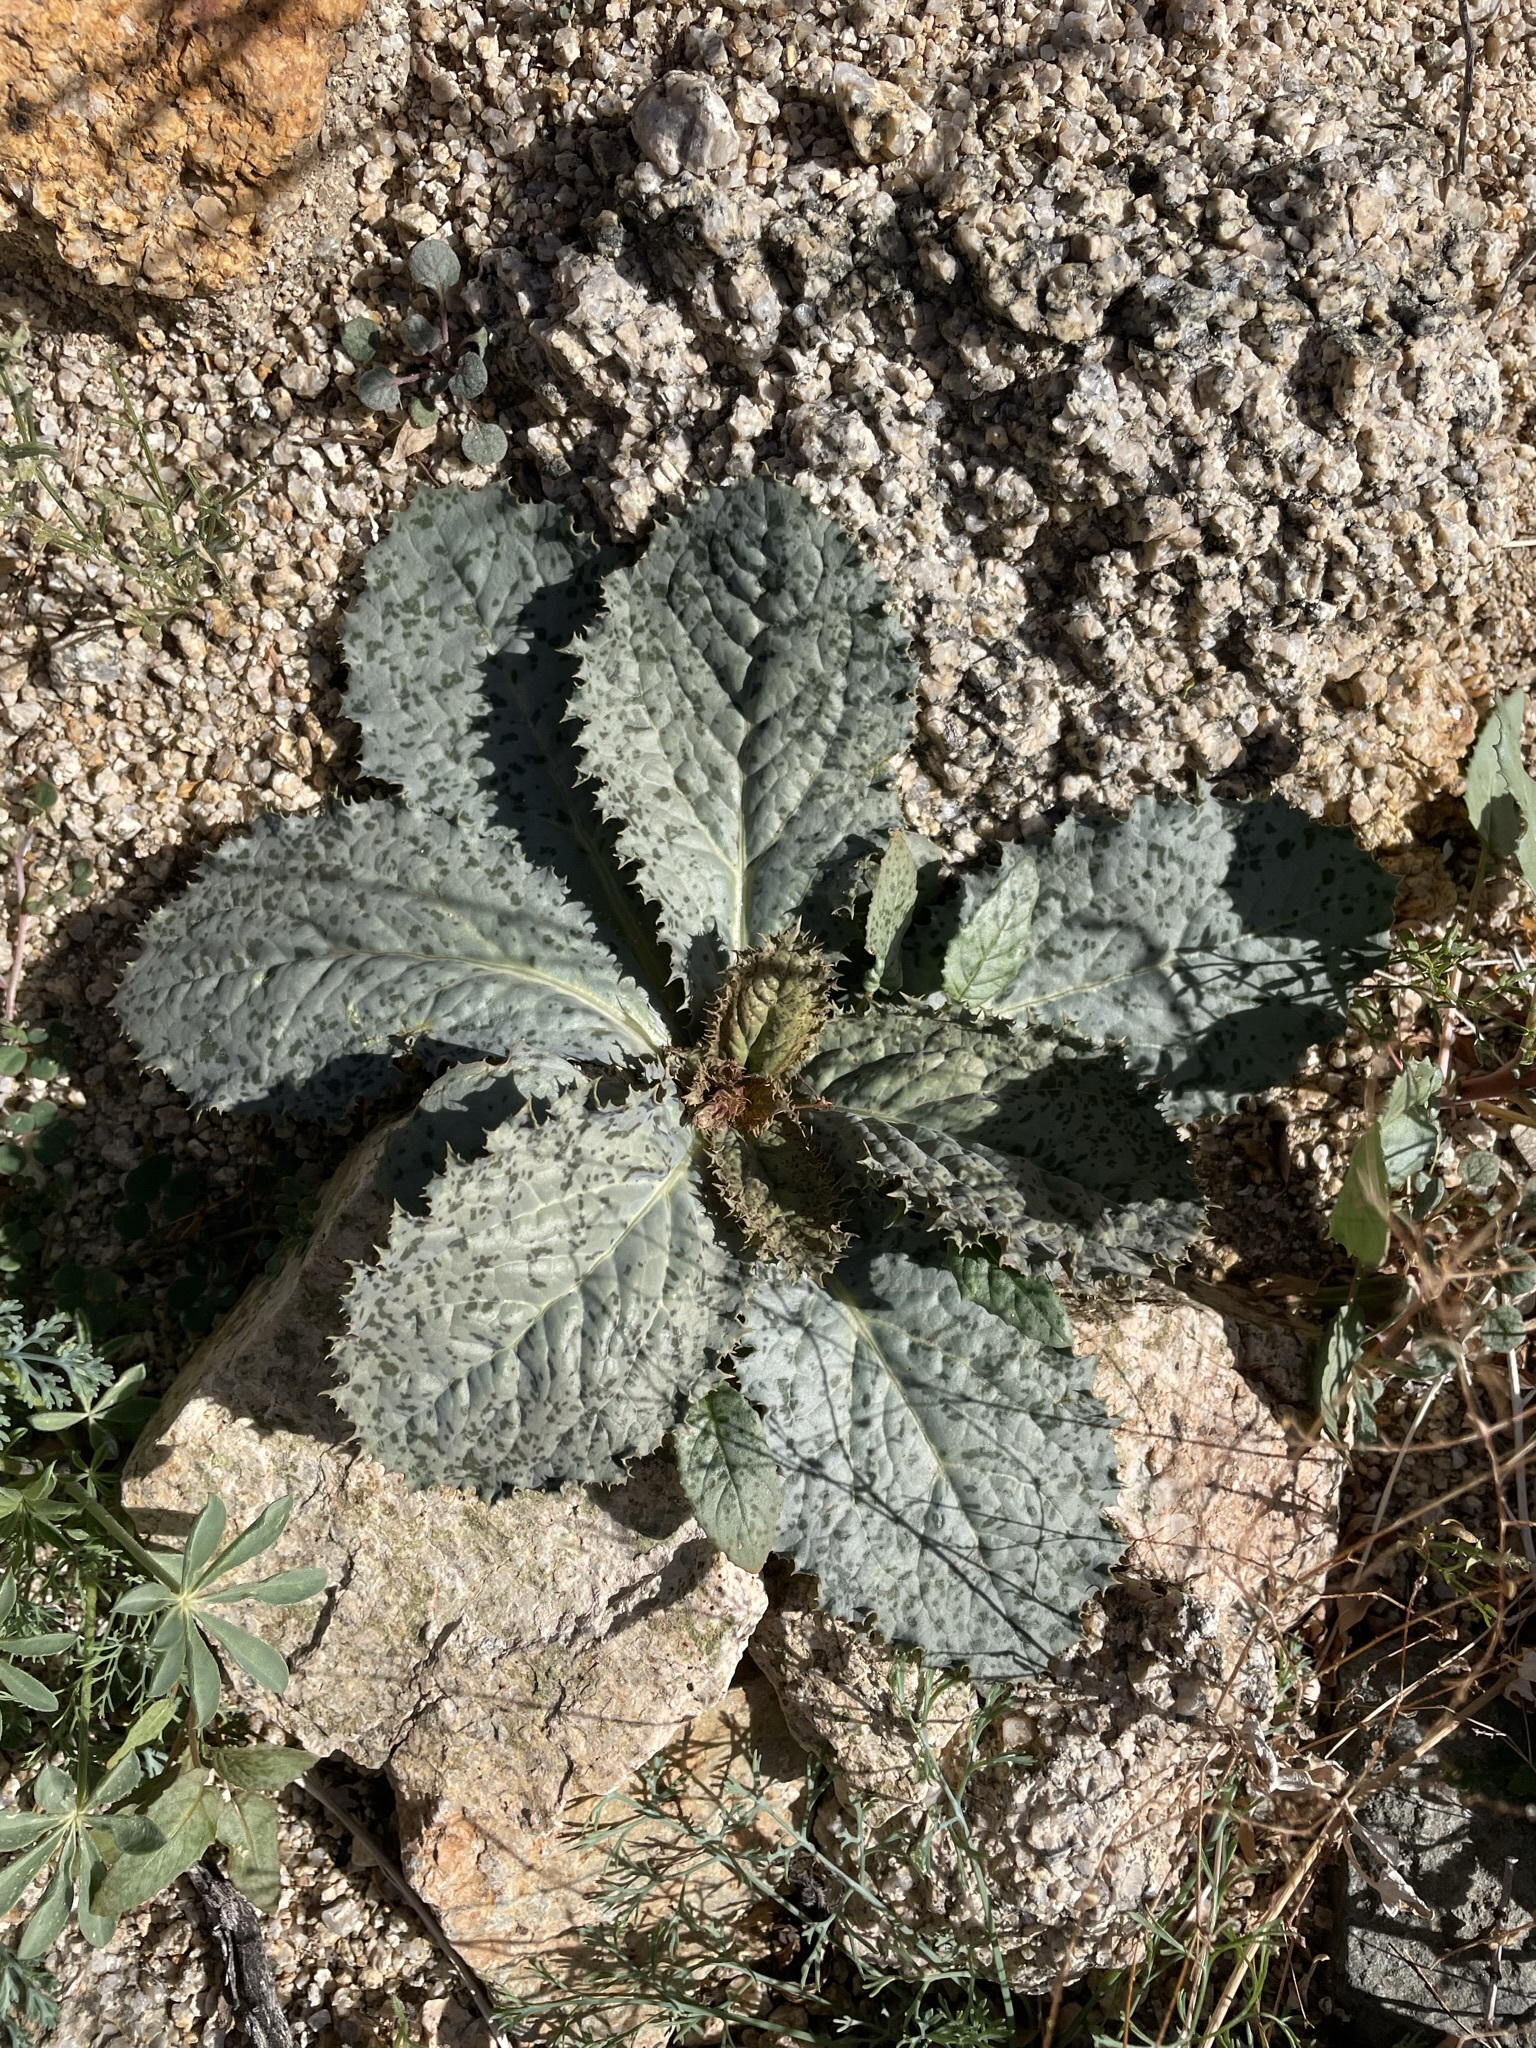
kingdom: Plantae
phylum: Tracheophyta
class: Magnoliopsida
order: Asterales
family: Asteraceae
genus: Atrichoseris
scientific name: Atrichoseris platyphylla
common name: Tobaccoweed
